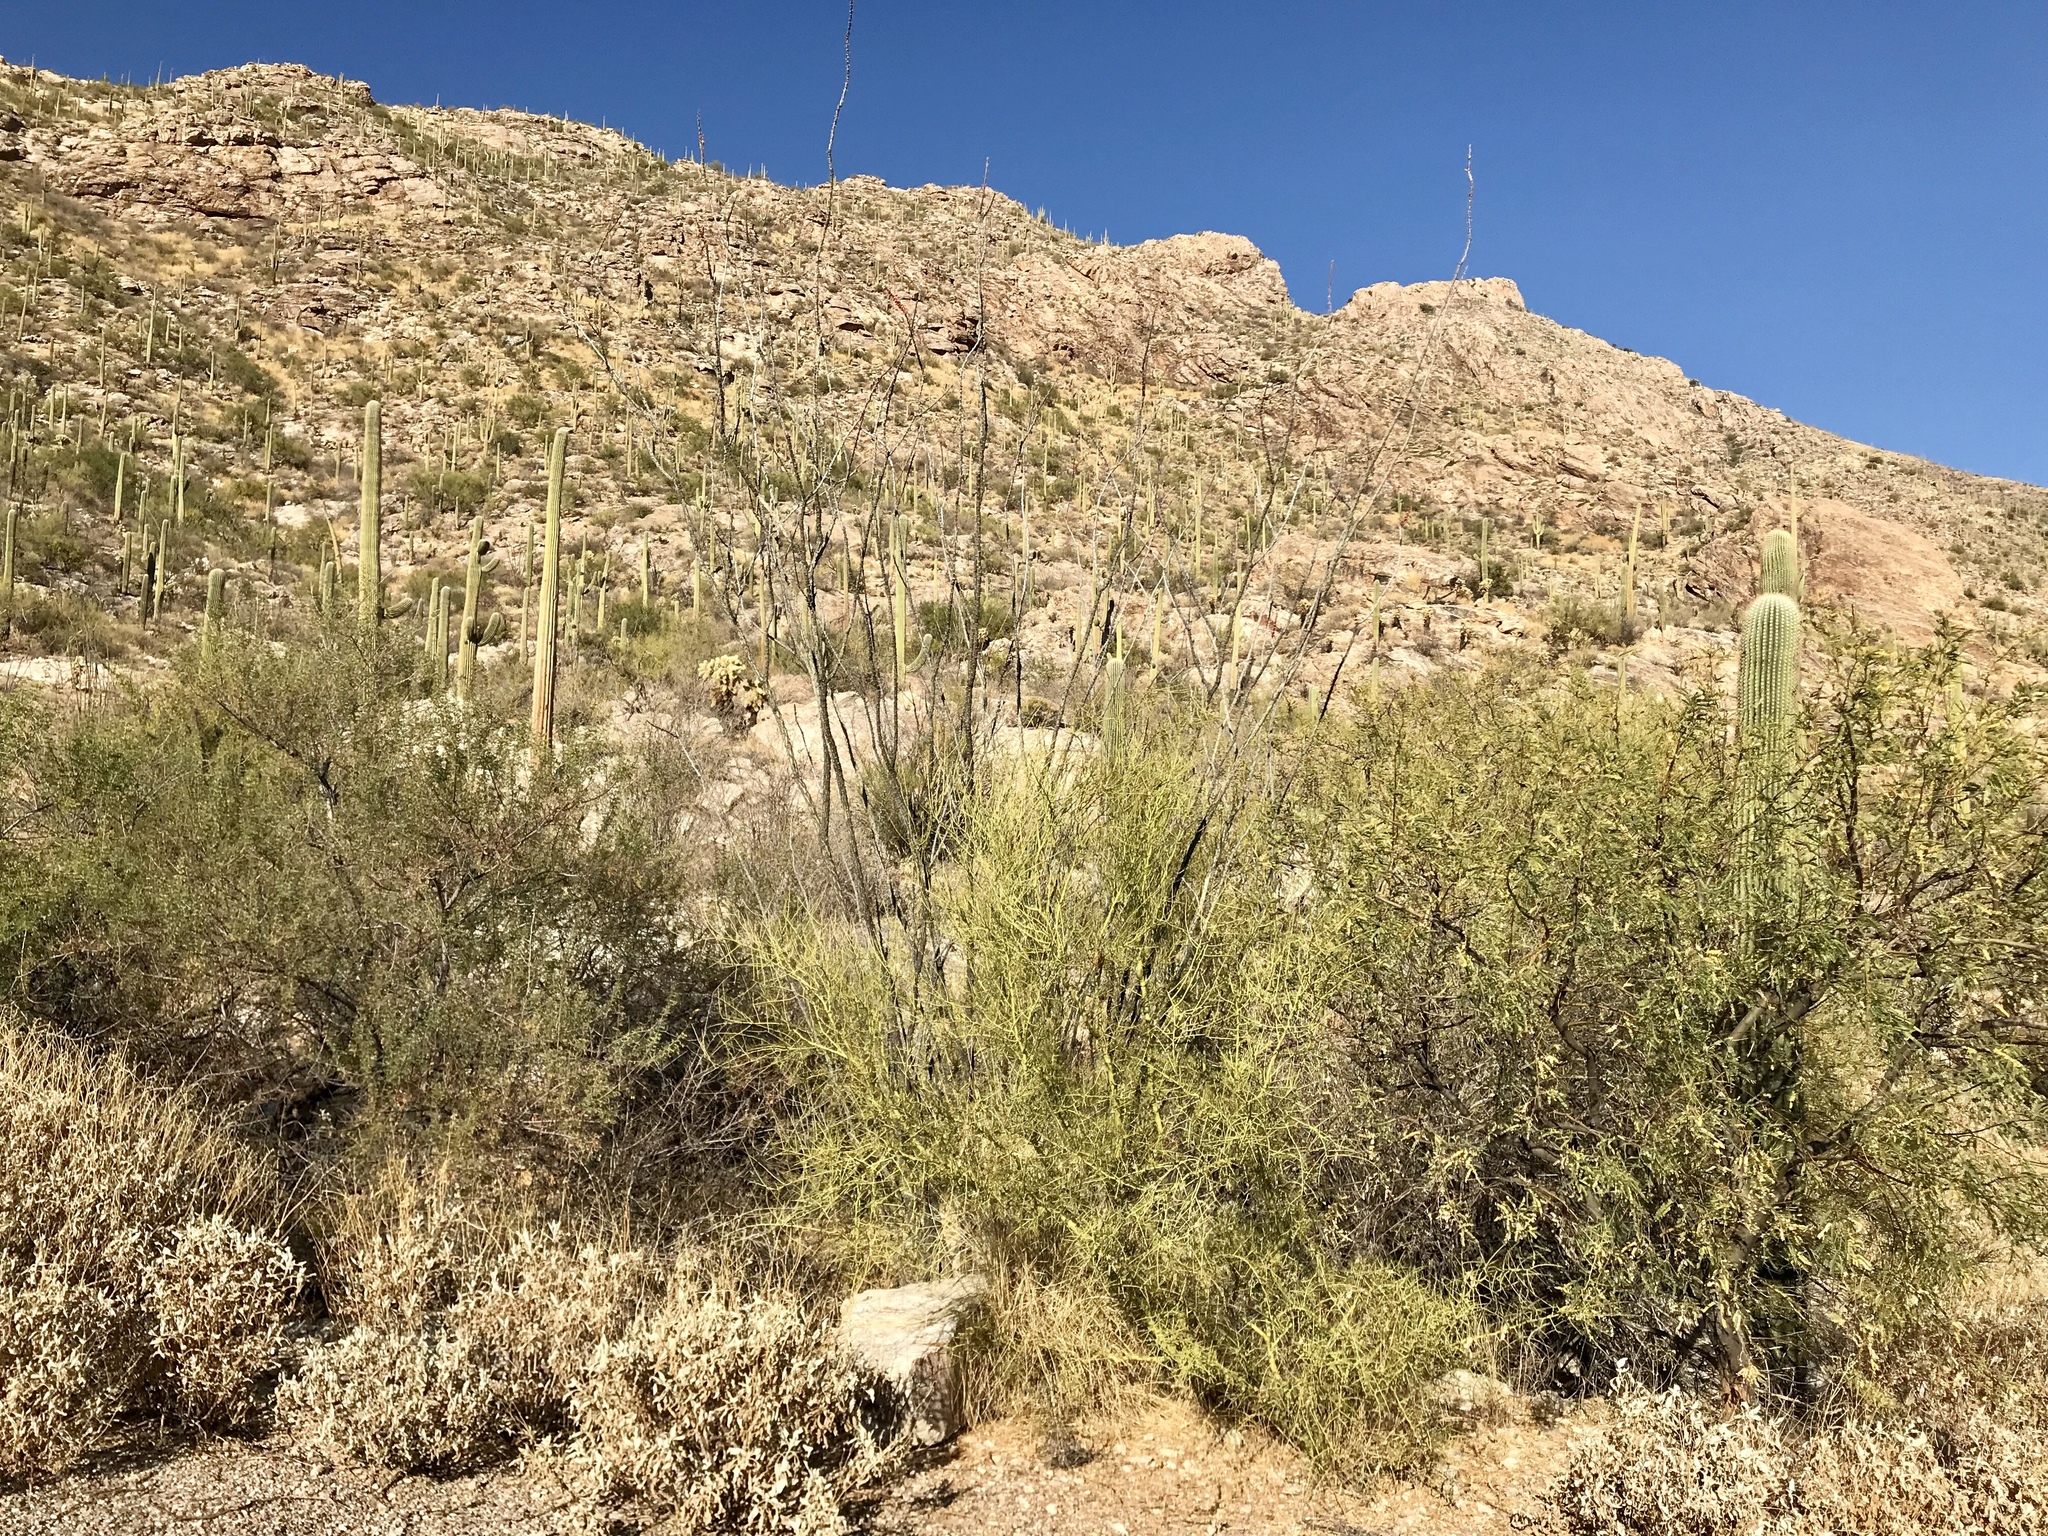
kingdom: Plantae
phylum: Tracheophyta
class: Magnoliopsida
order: Fabales
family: Fabaceae
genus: Parkinsonia
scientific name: Parkinsonia microphylla
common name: Yellow paloverde
